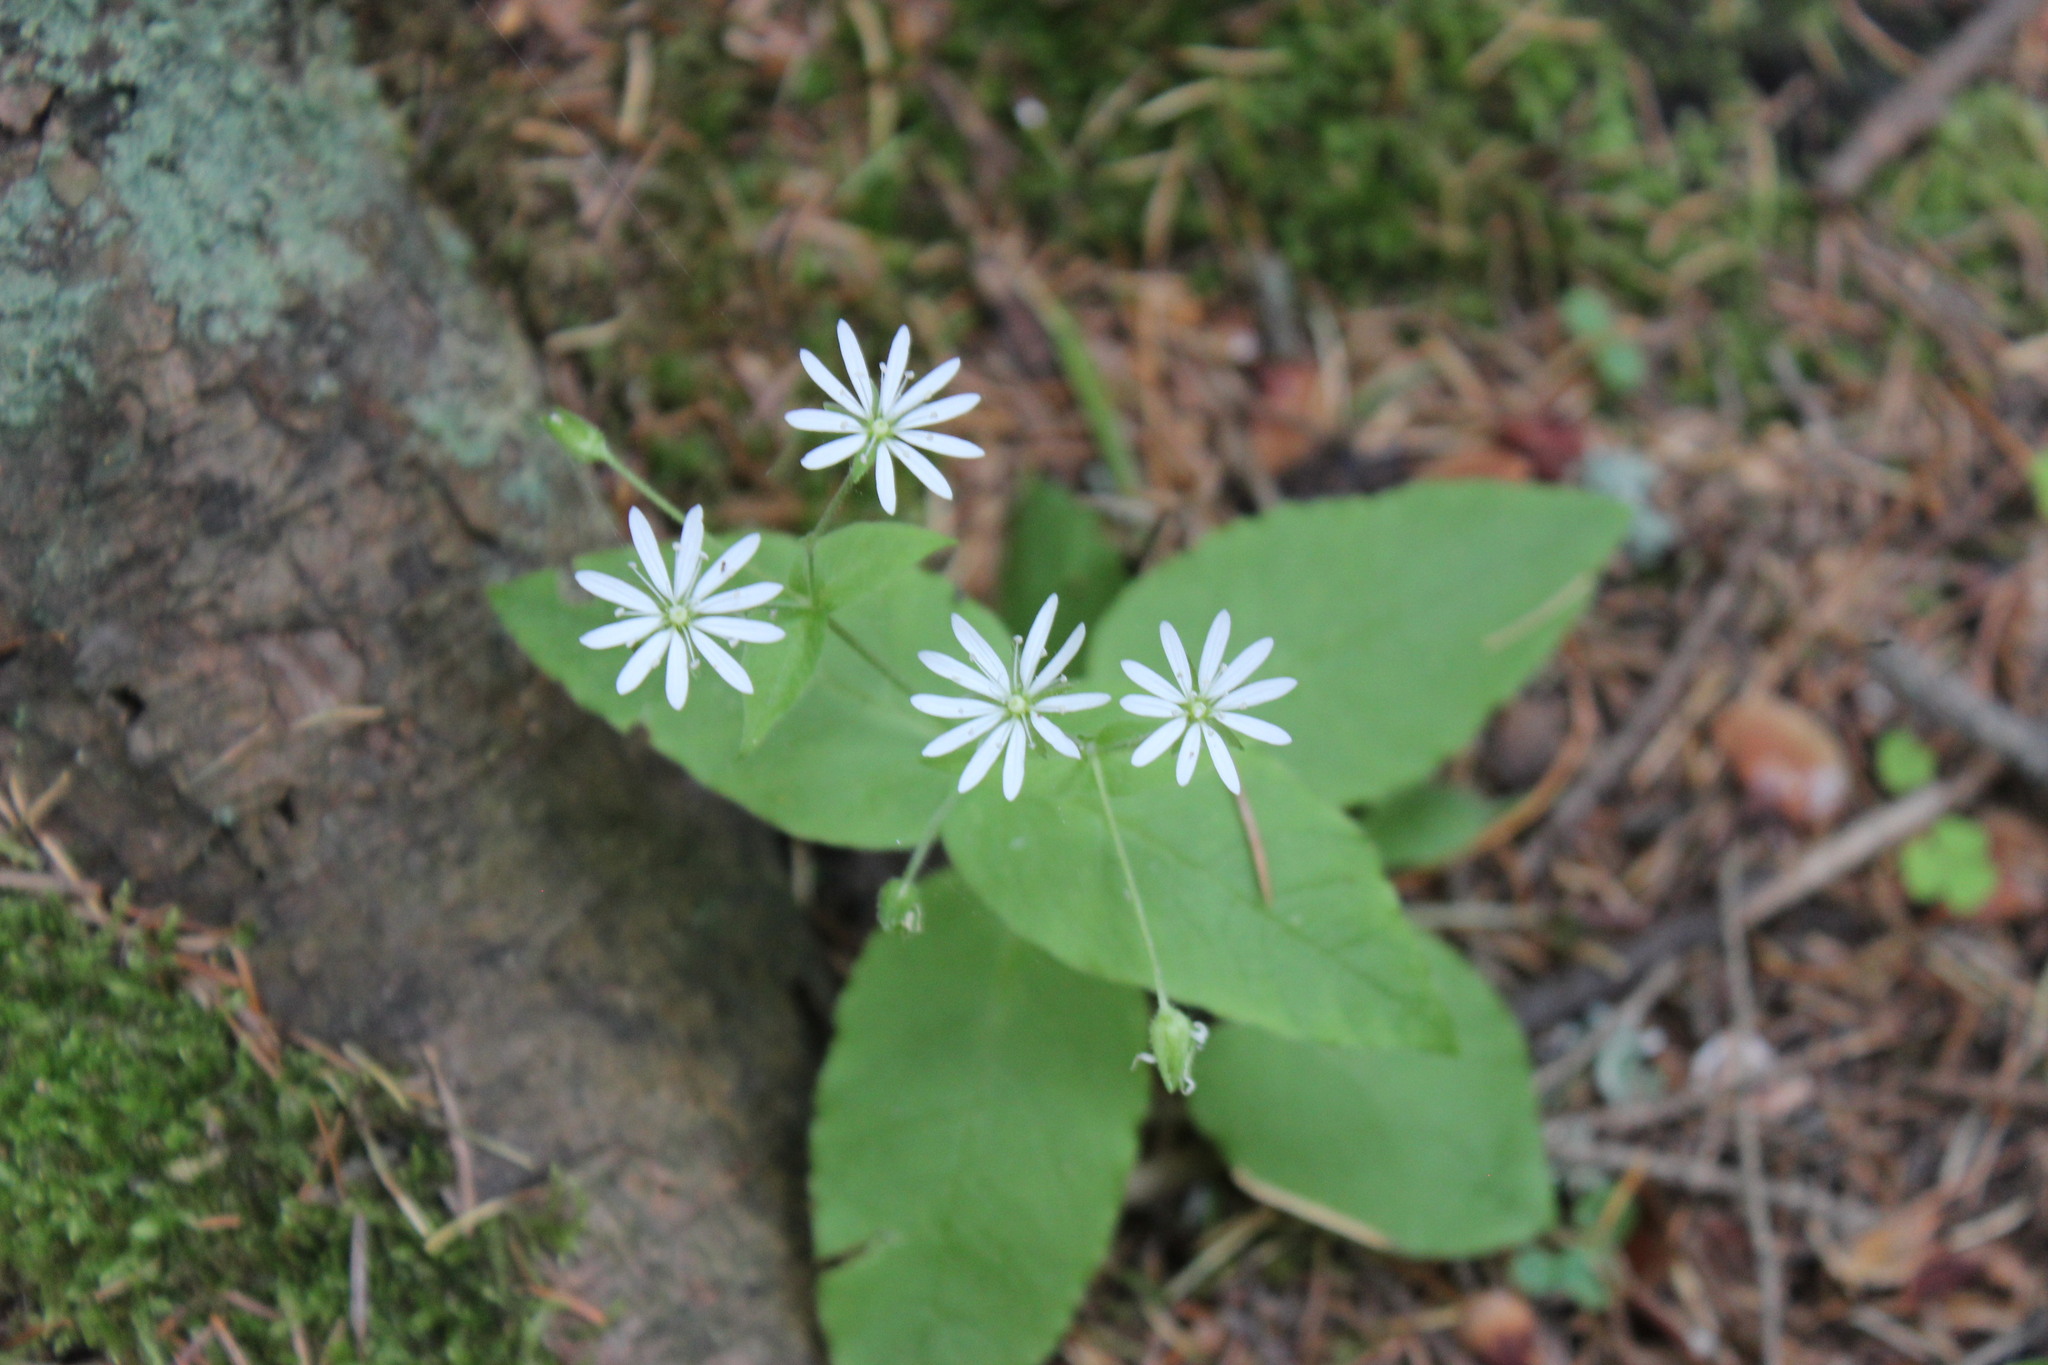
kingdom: Plantae
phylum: Tracheophyta
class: Magnoliopsida
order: Caryophyllales
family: Caryophyllaceae
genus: Stellaria
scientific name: Stellaria bungeana
